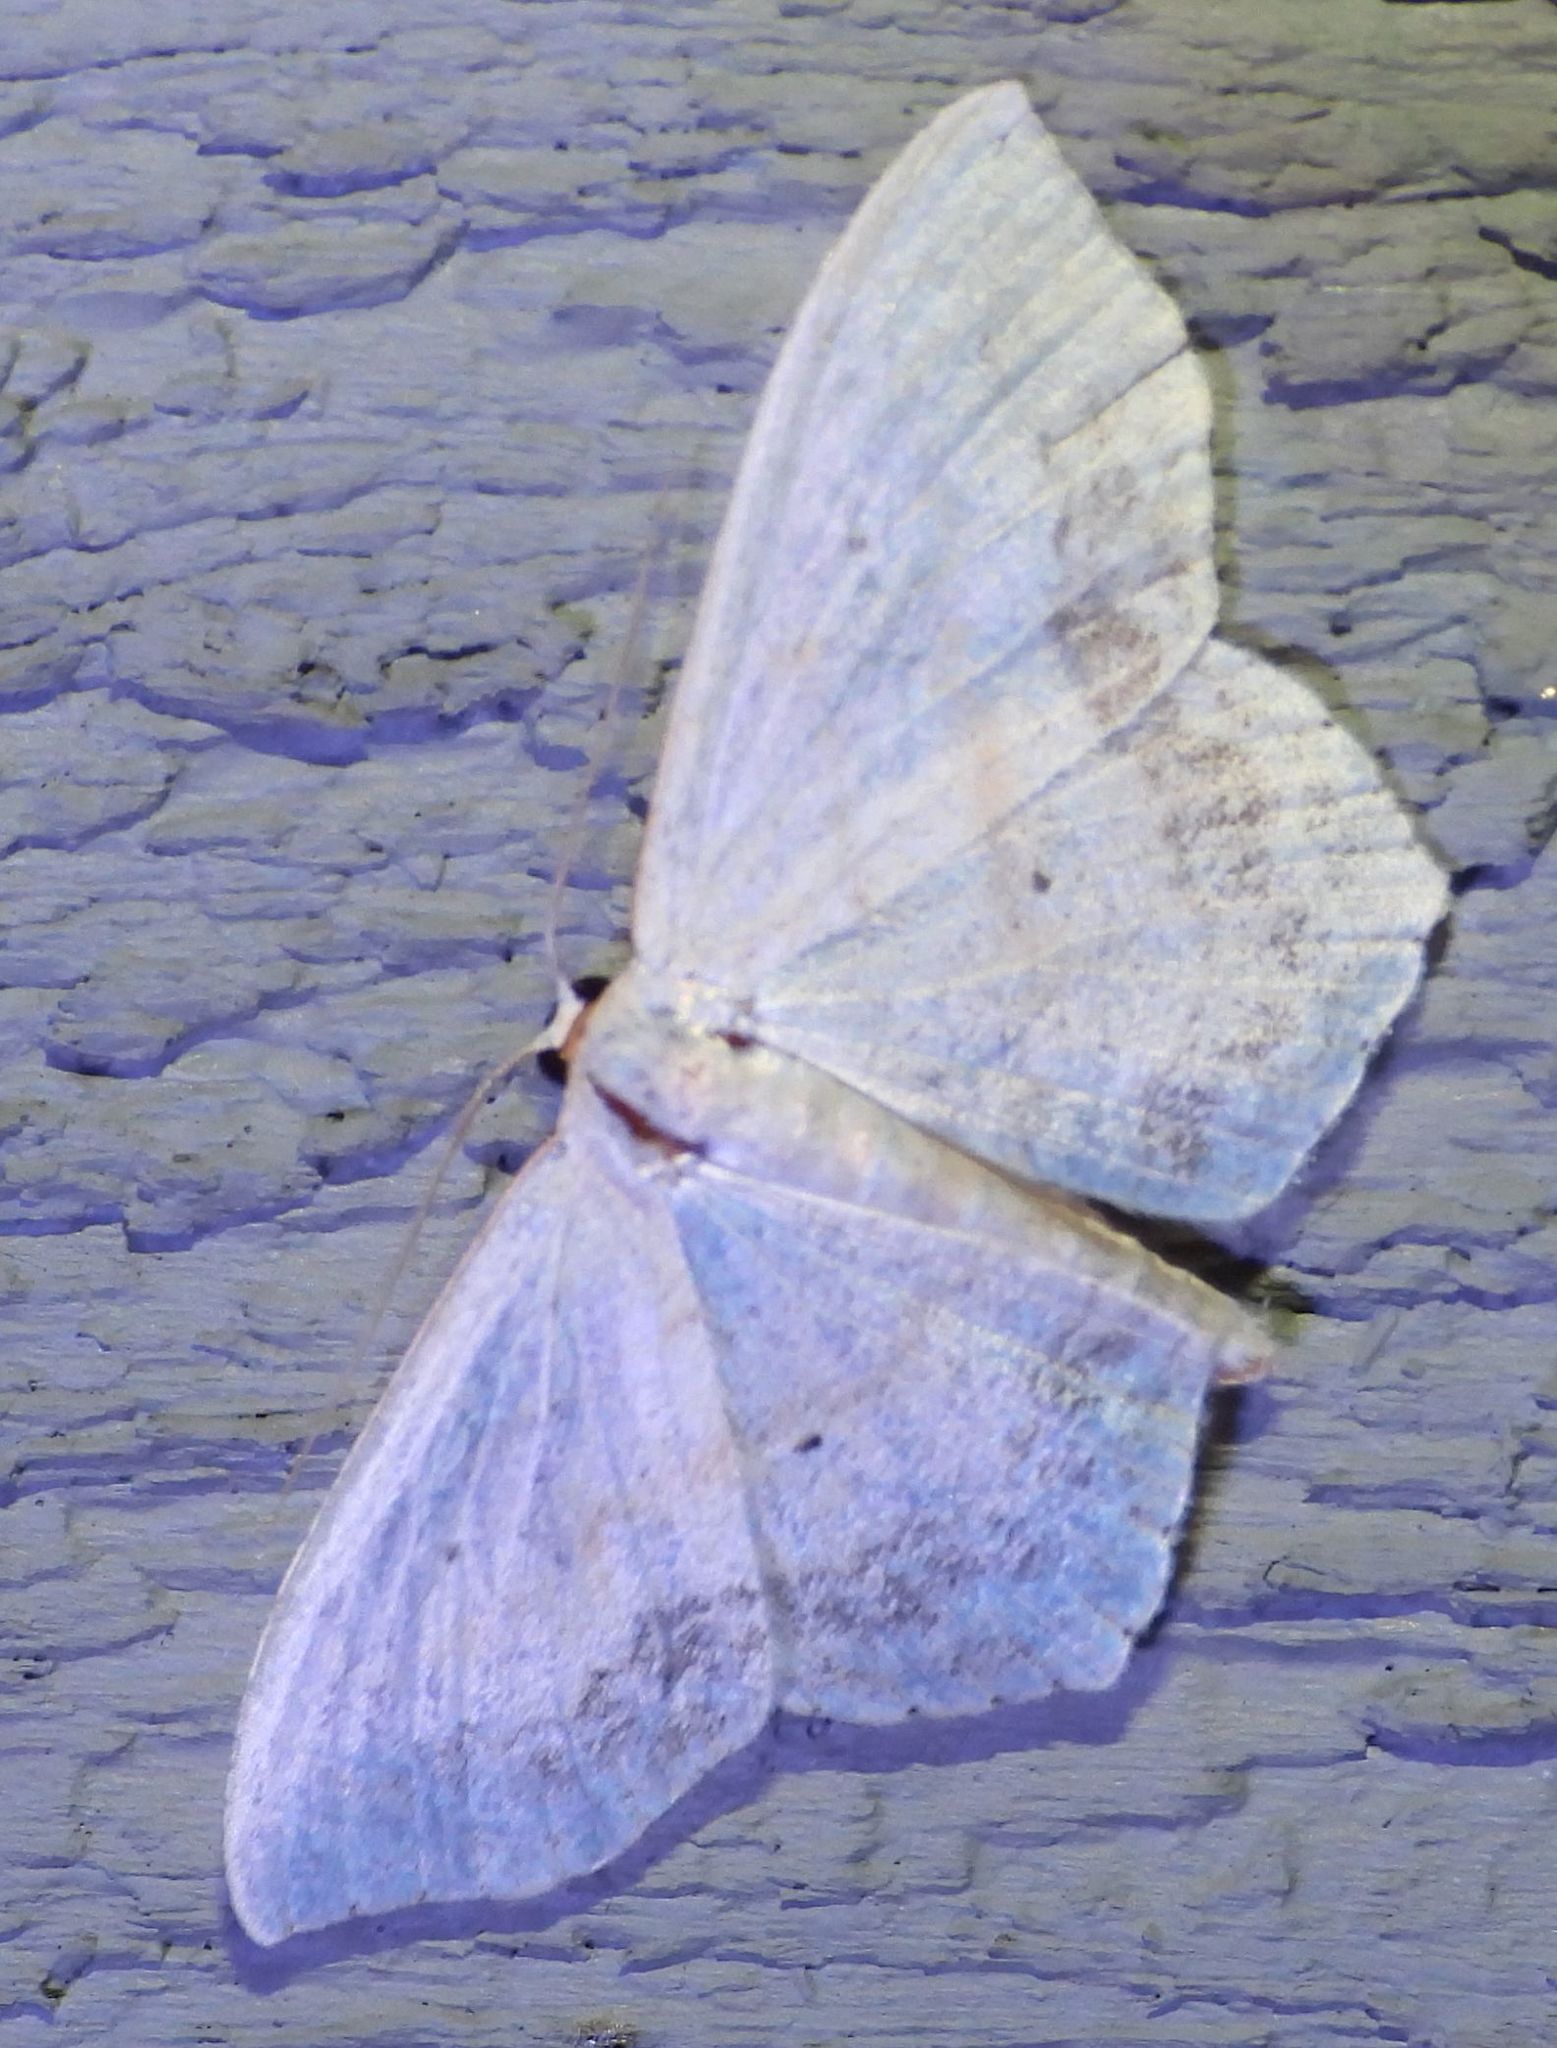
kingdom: Animalia
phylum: Arthropoda
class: Insecta
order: Lepidoptera
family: Geometridae
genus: Scopula
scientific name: Scopula limboundata
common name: Large lace border
